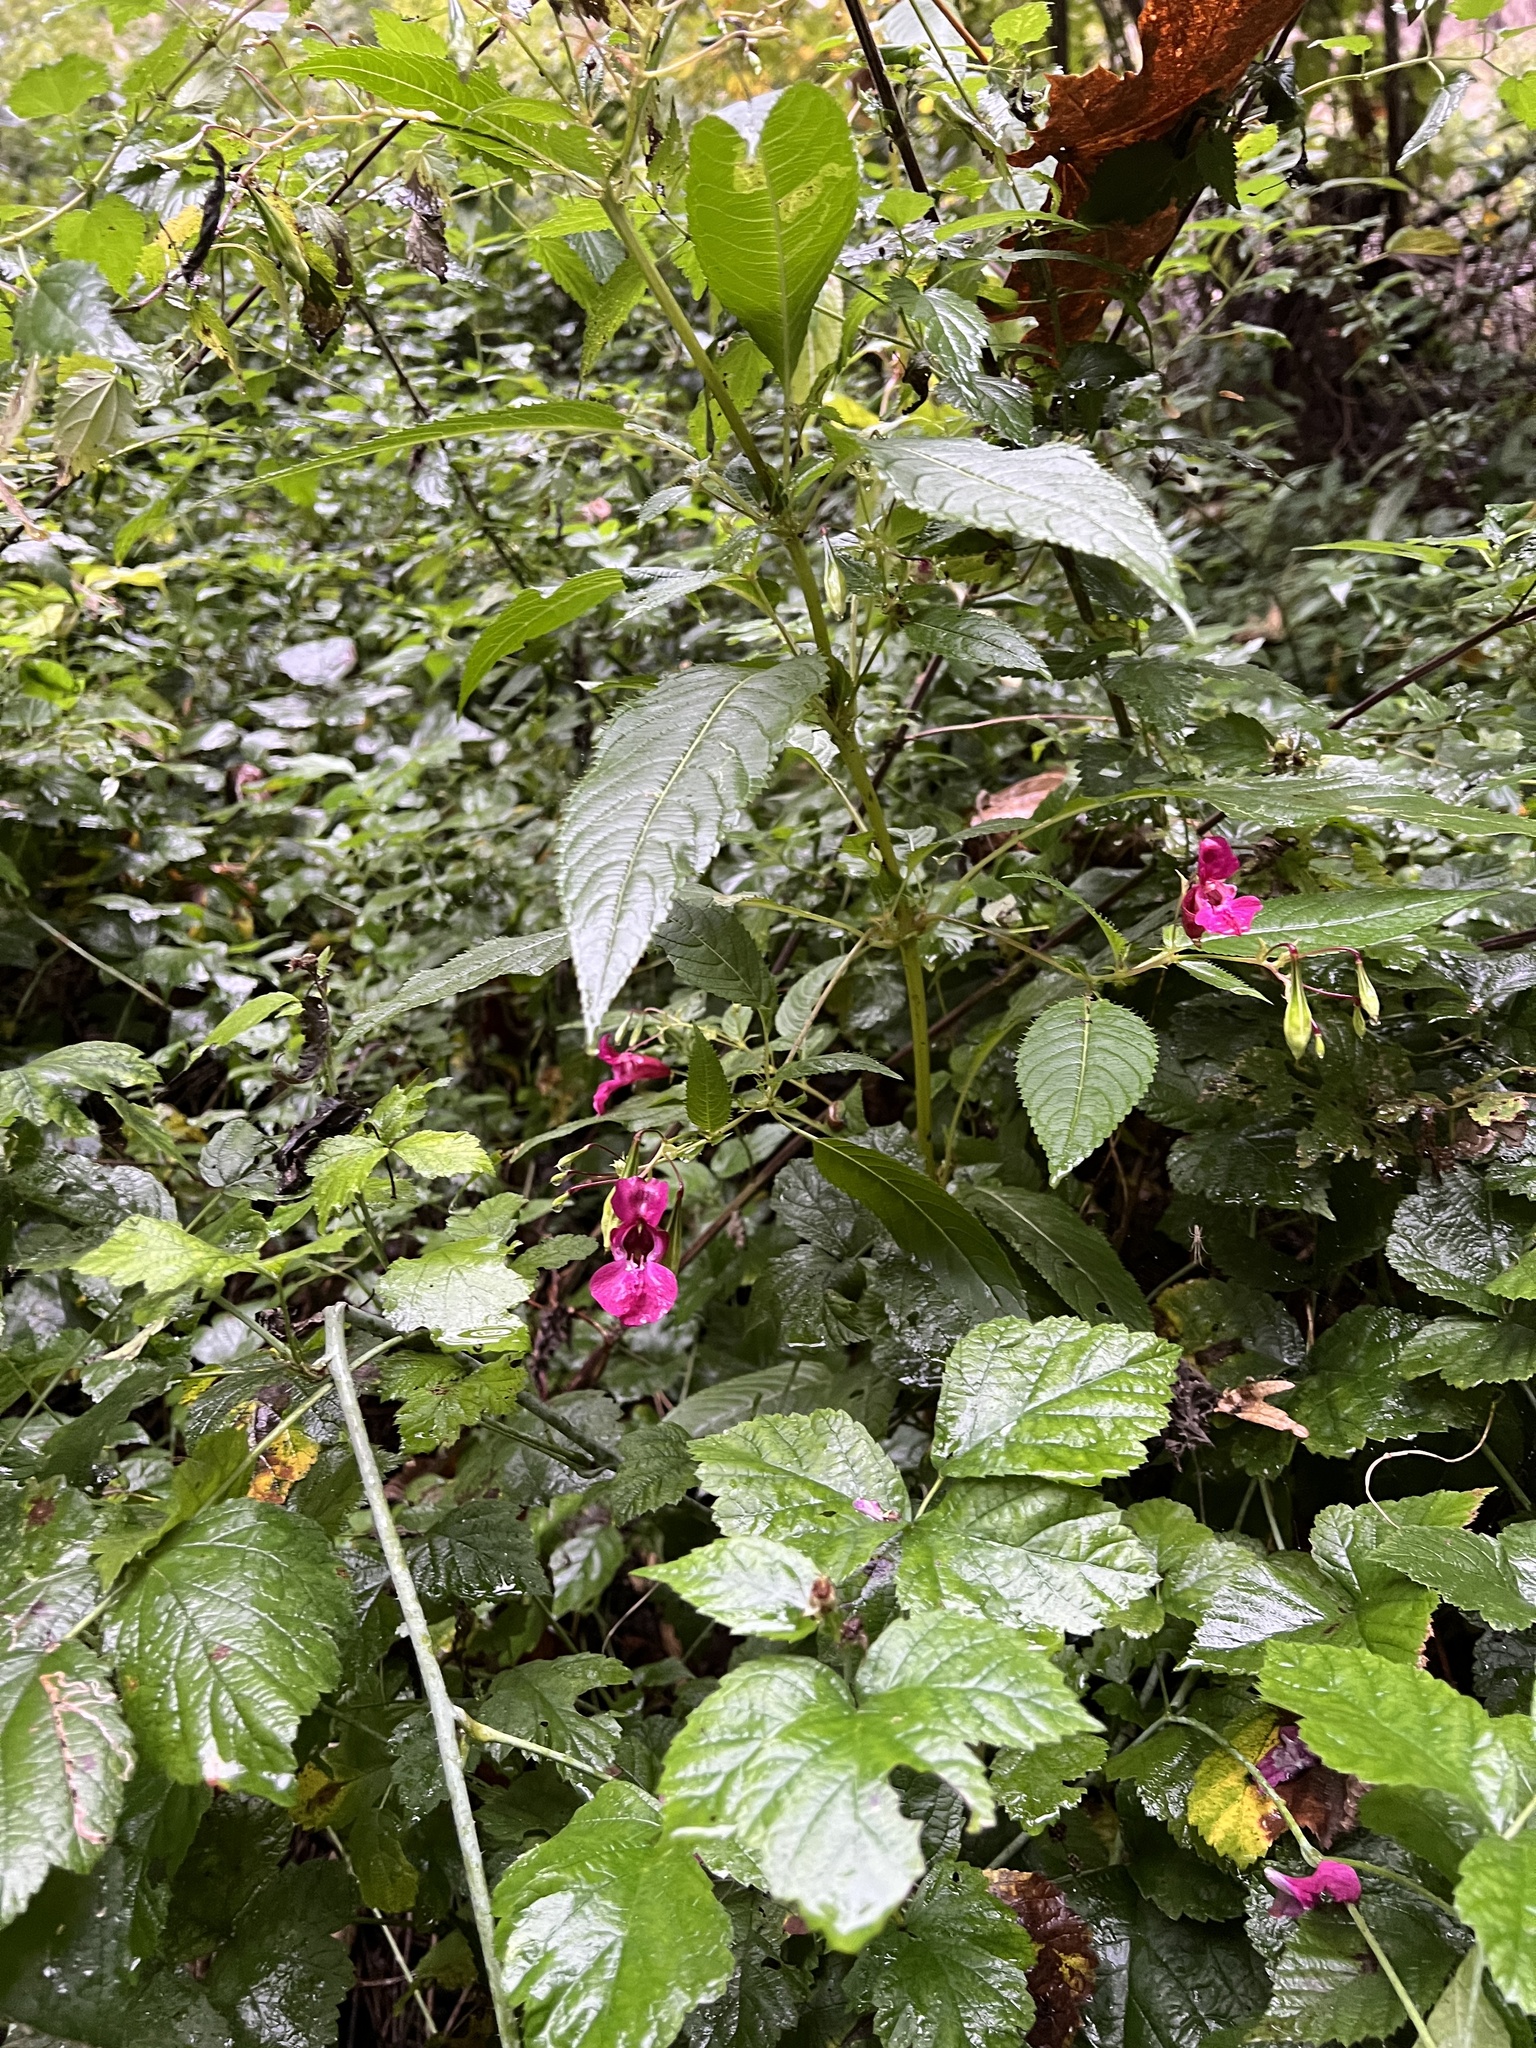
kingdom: Plantae
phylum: Tracheophyta
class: Magnoliopsida
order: Ericales
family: Balsaminaceae
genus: Impatiens
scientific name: Impatiens glandulifera
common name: Himalayan balsam
